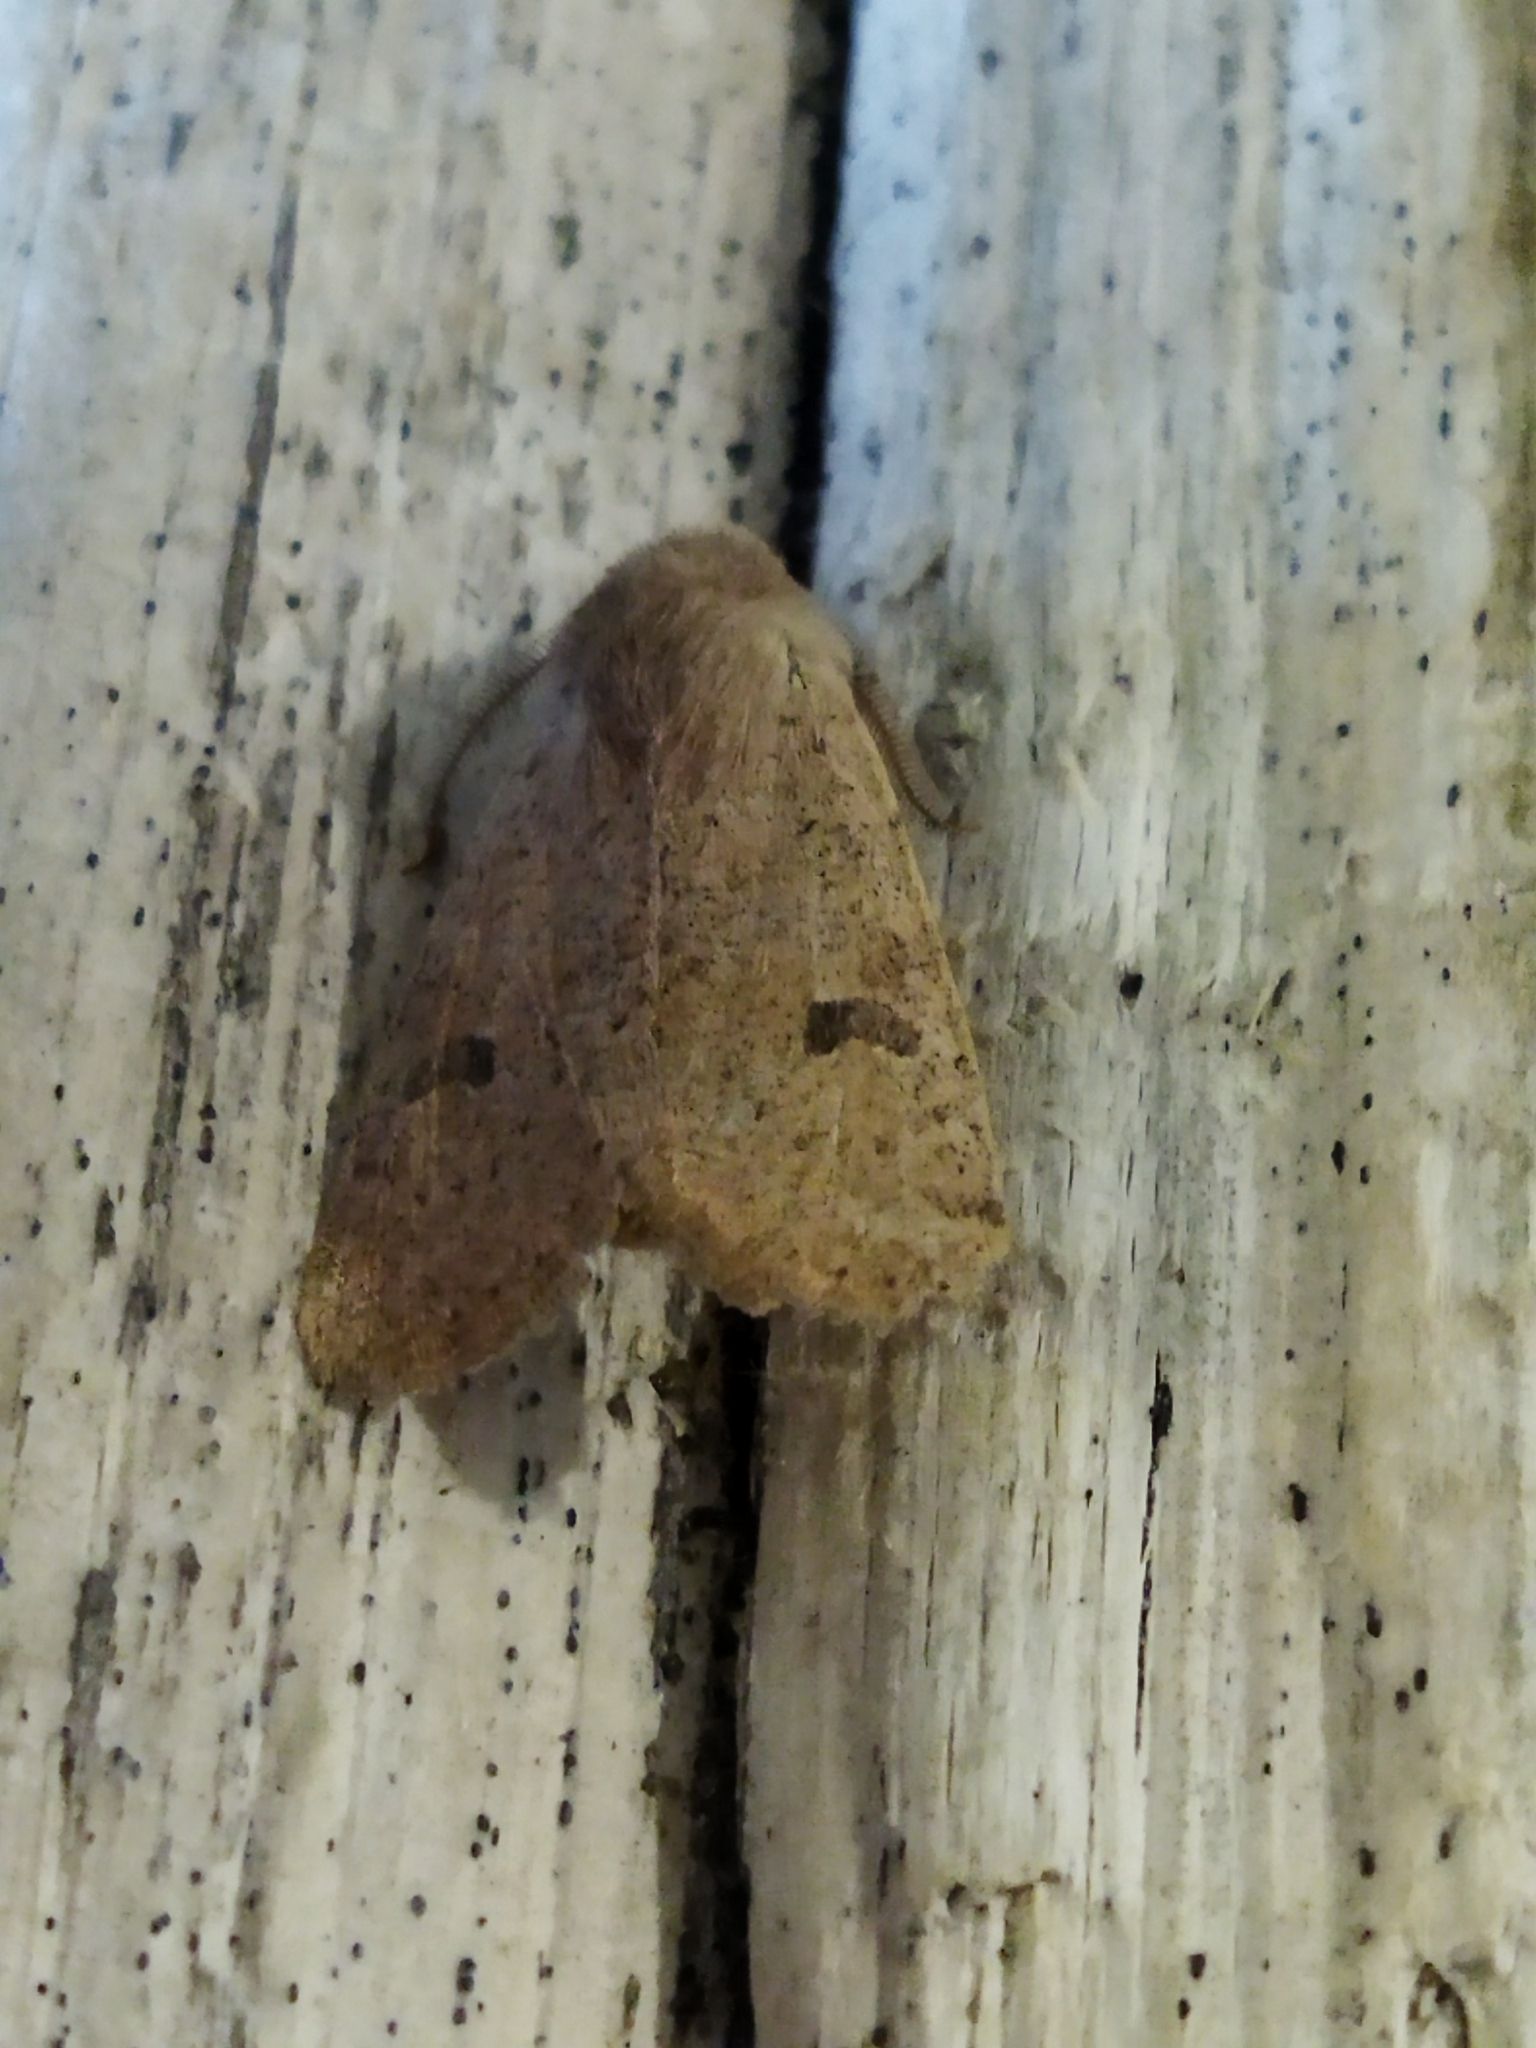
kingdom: Animalia
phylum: Arthropoda
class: Insecta
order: Lepidoptera
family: Noctuidae
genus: Orthosia
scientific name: Orthosia cruda
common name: Small quaker
